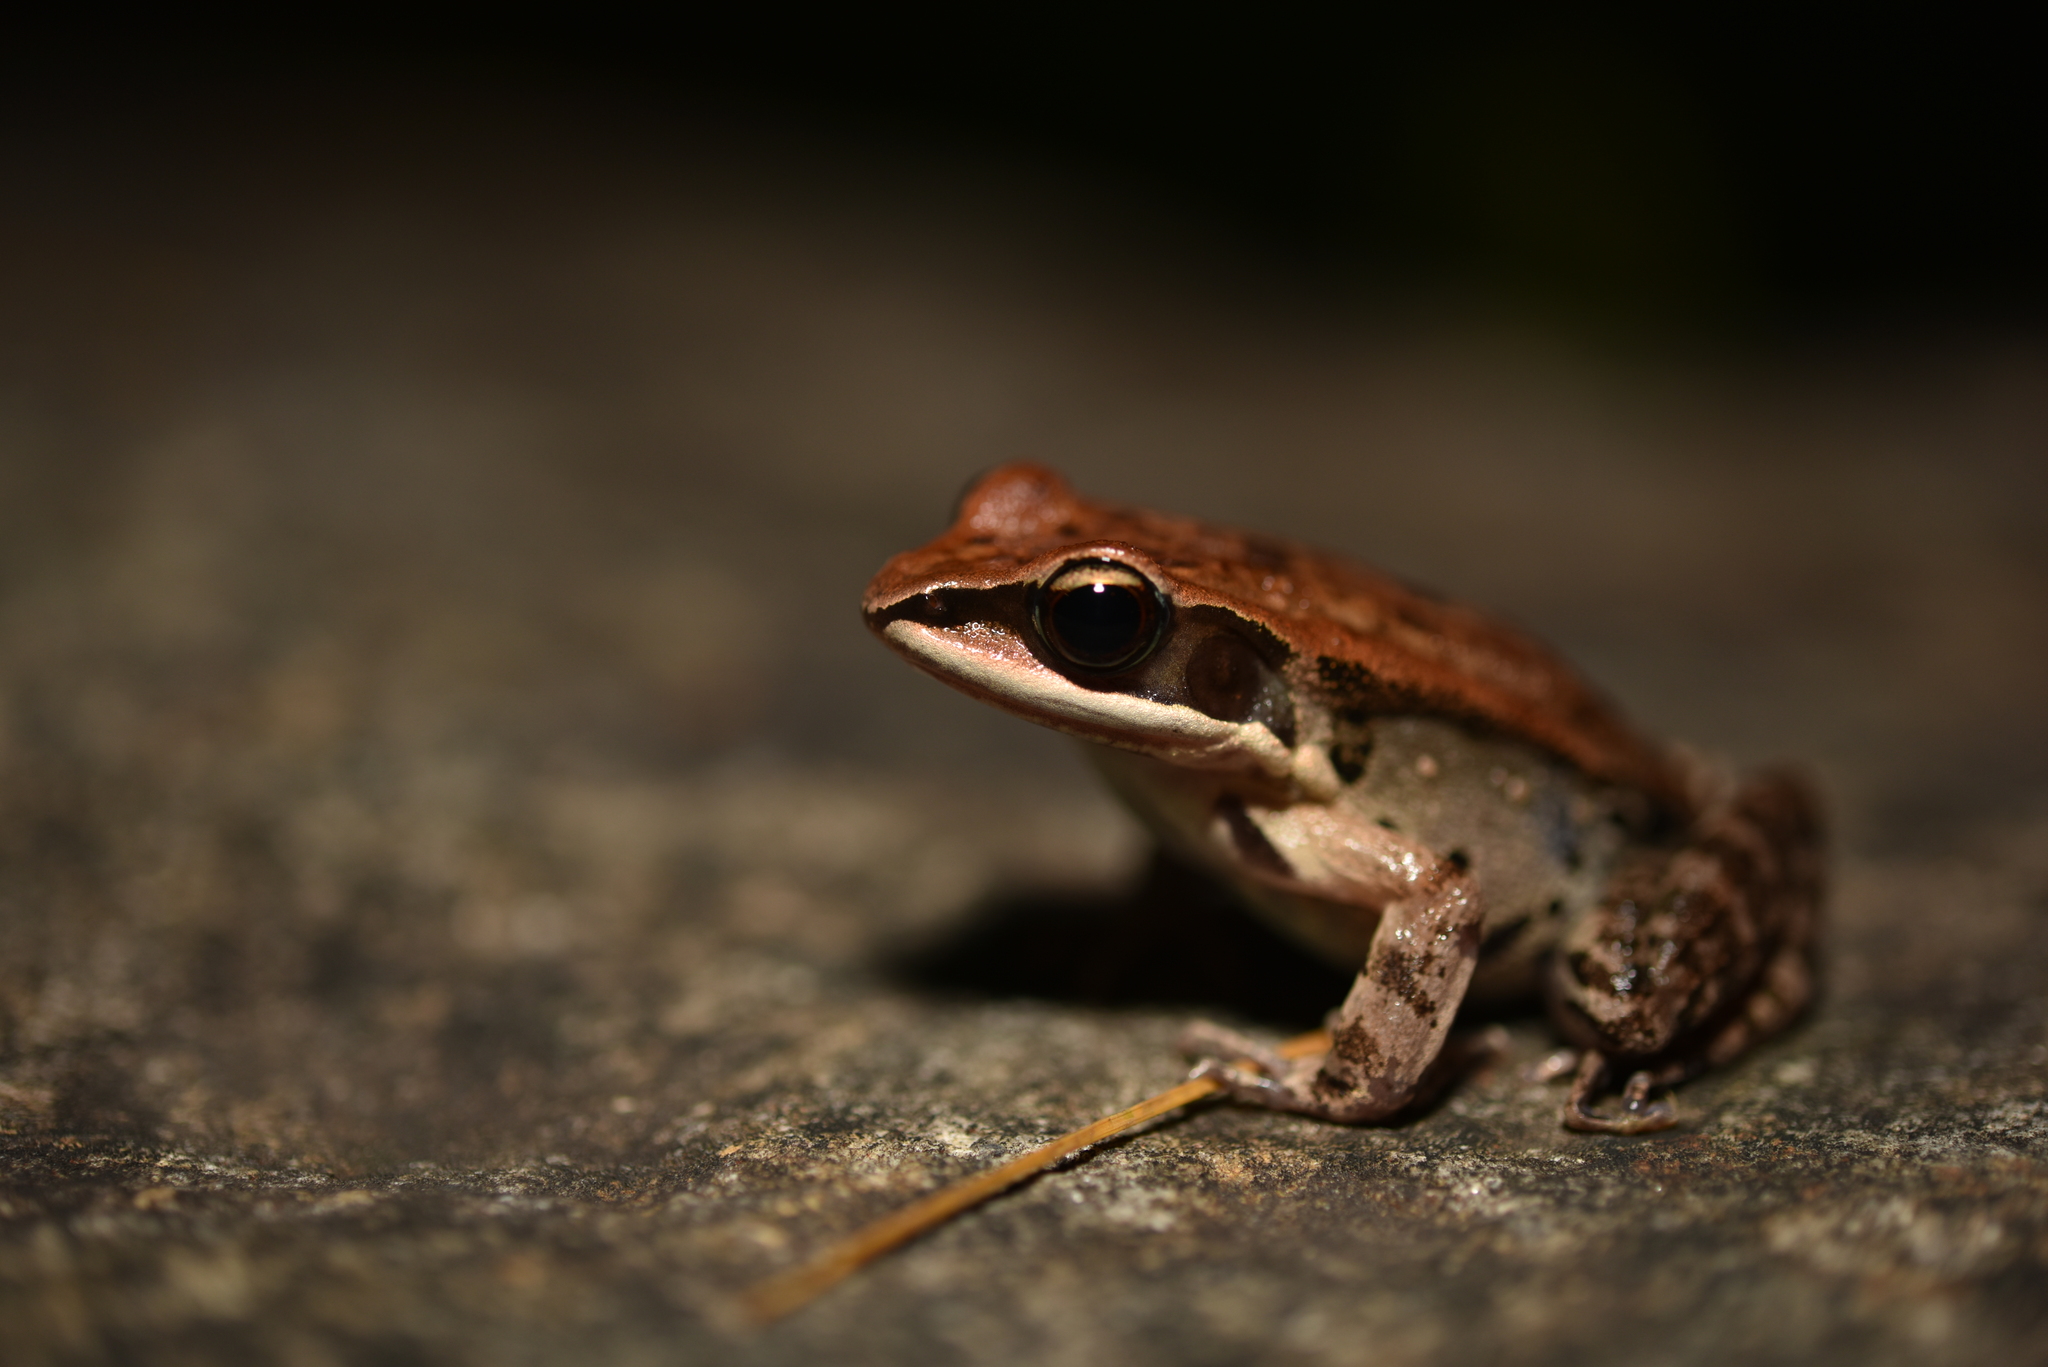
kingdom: Animalia
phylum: Chordata
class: Amphibia
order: Anura
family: Ranidae
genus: Hylarana
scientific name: Hylarana latouchii
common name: Broad-folded frog
